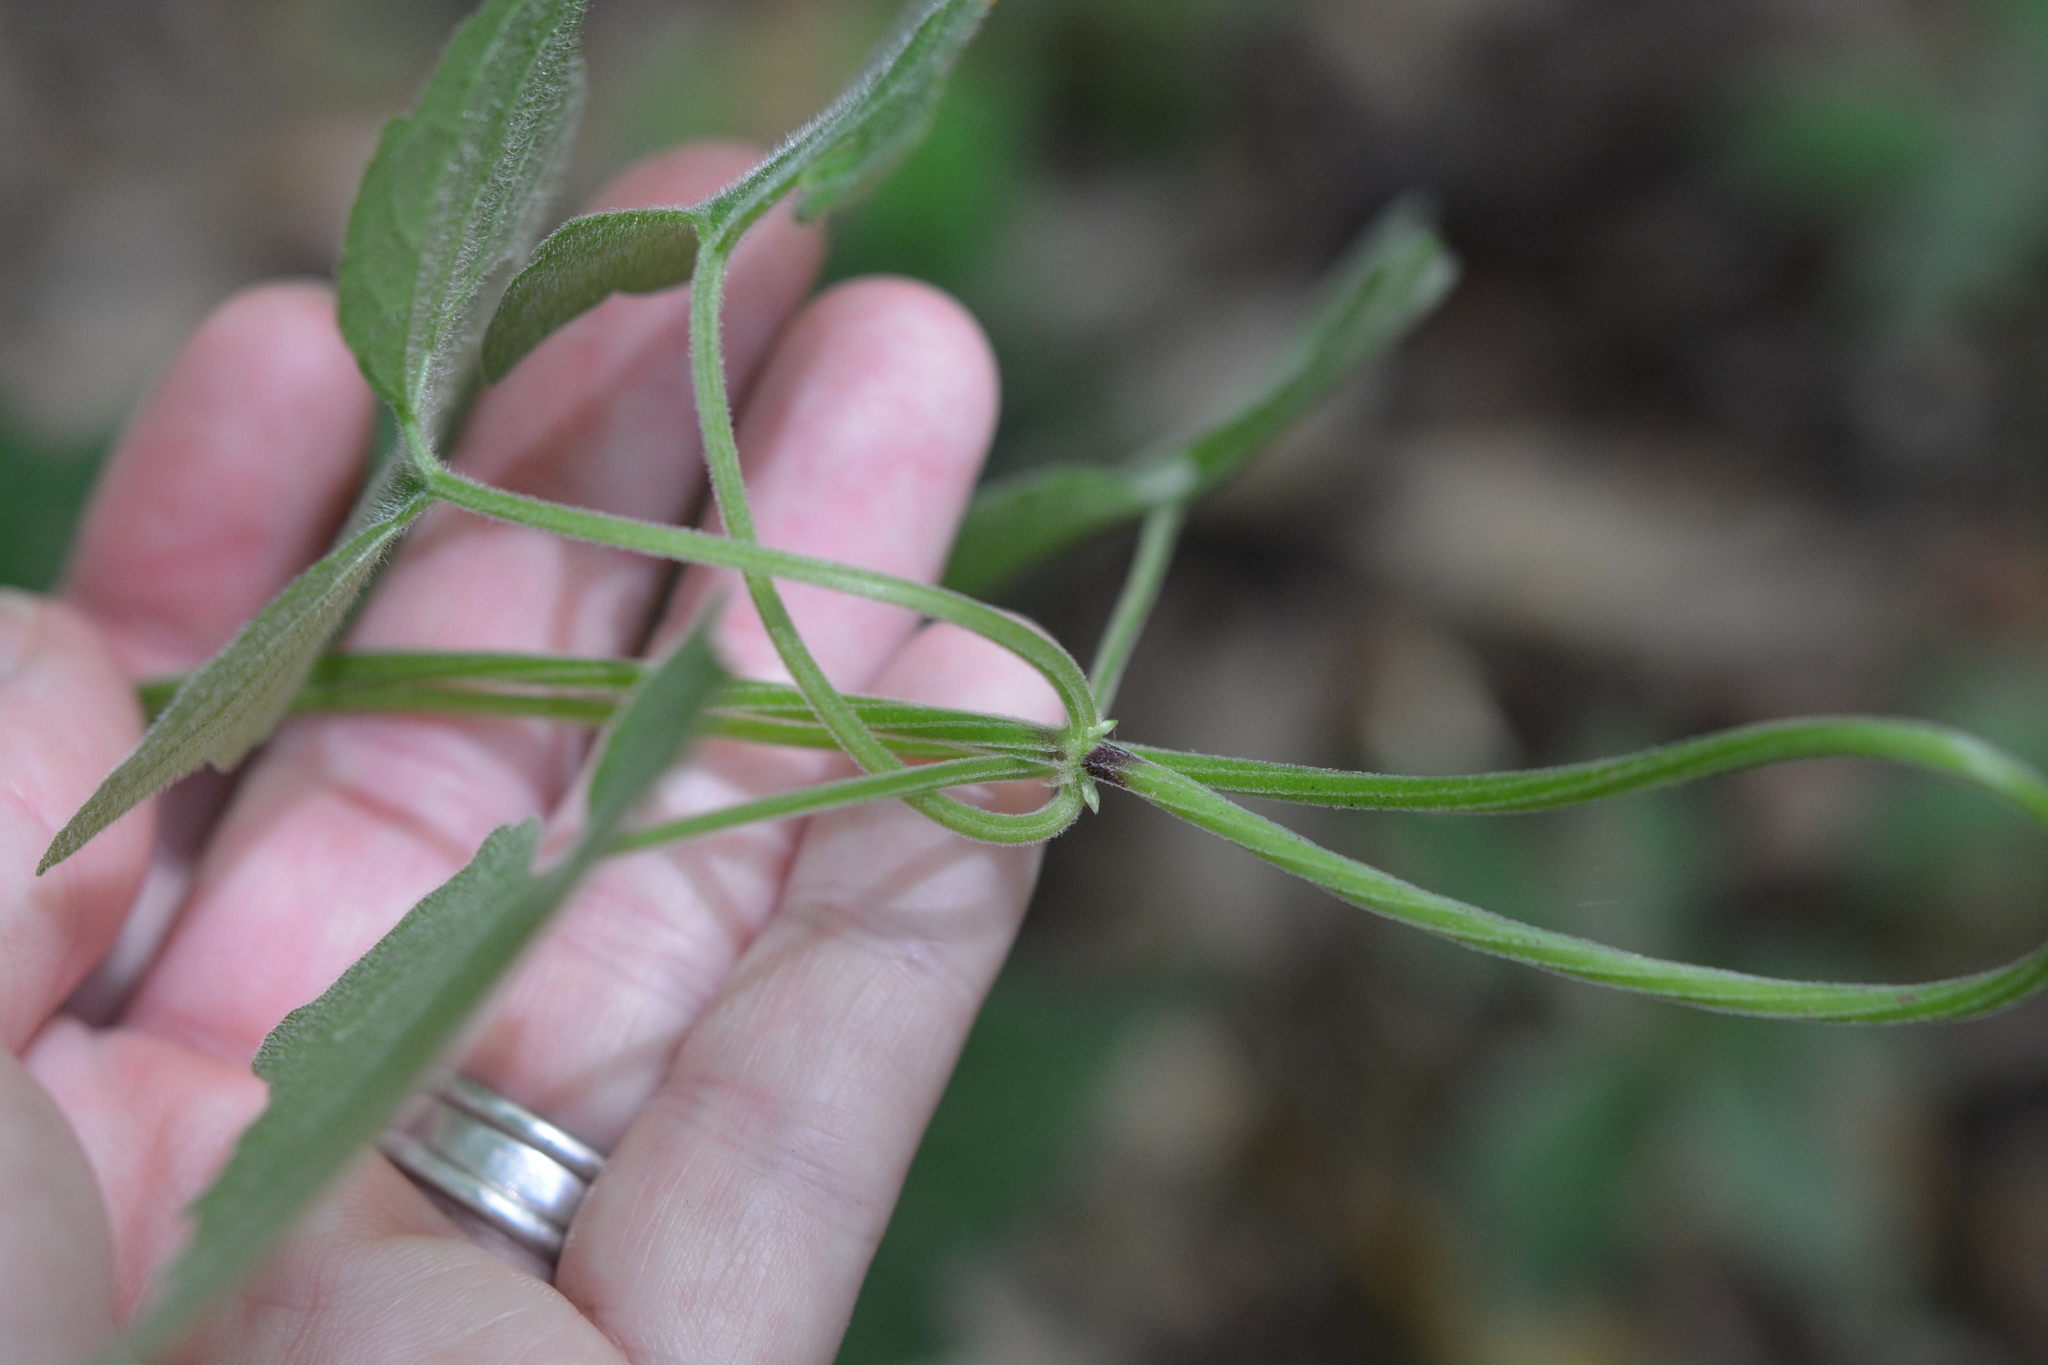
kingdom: Plantae
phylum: Tracheophyta
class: Magnoliopsida
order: Asterales
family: Asteraceae
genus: Mikania
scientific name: Mikania cordifolia
